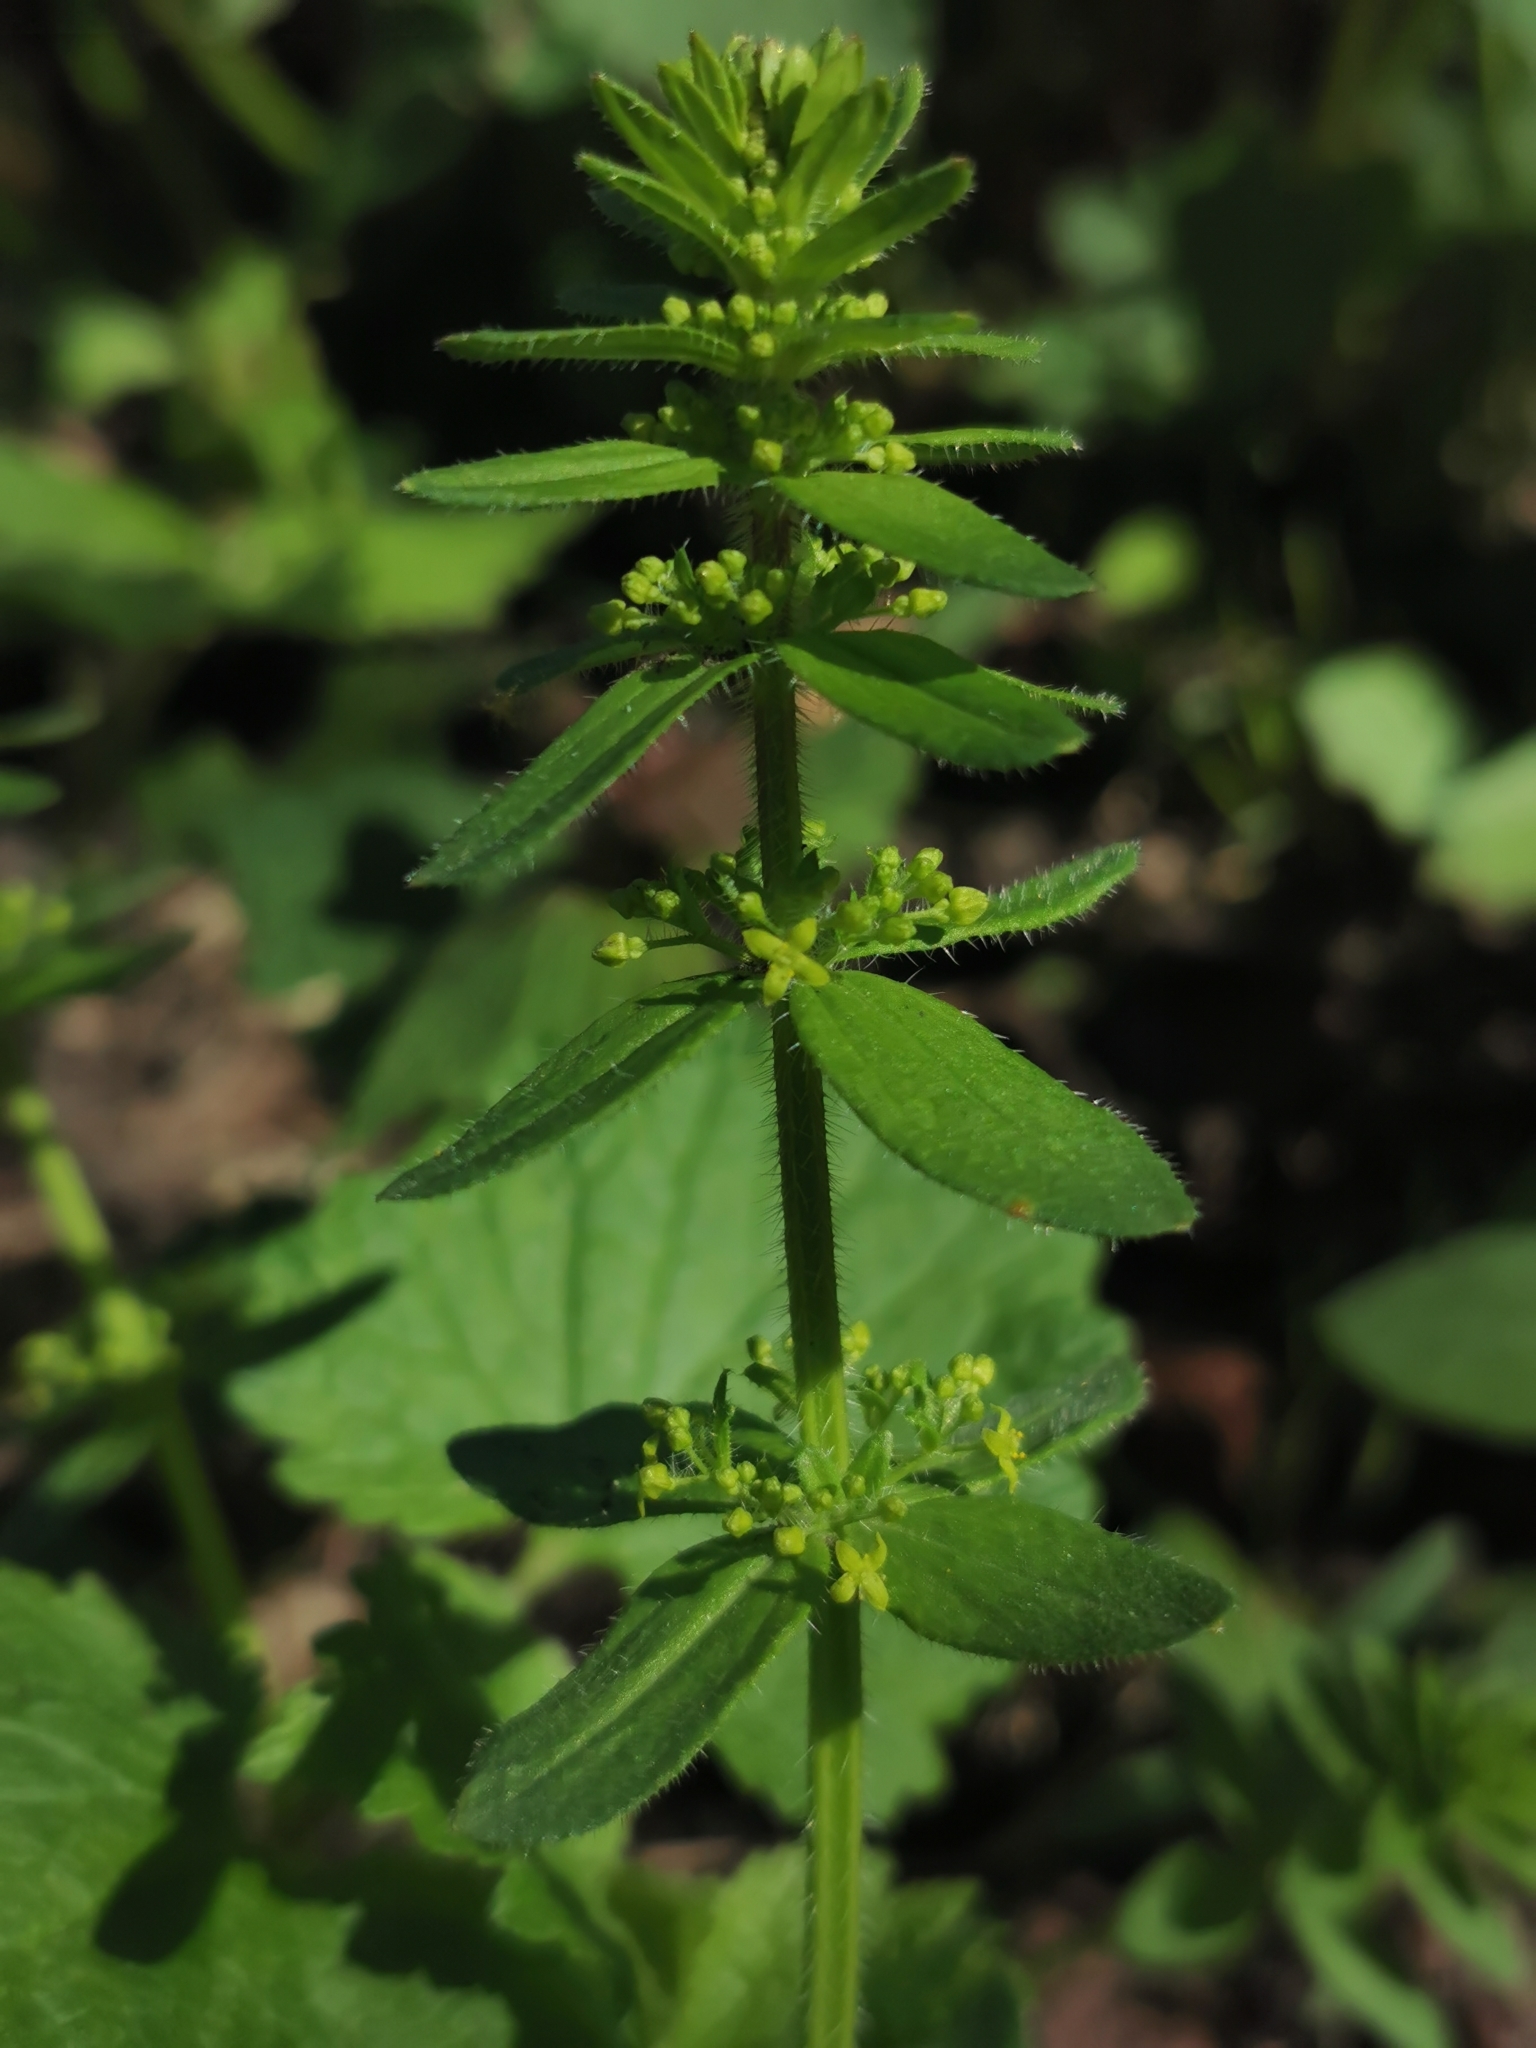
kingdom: Plantae
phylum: Tracheophyta
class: Magnoliopsida
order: Gentianales
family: Rubiaceae
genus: Cruciata
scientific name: Cruciata laevipes
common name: Crosswort
